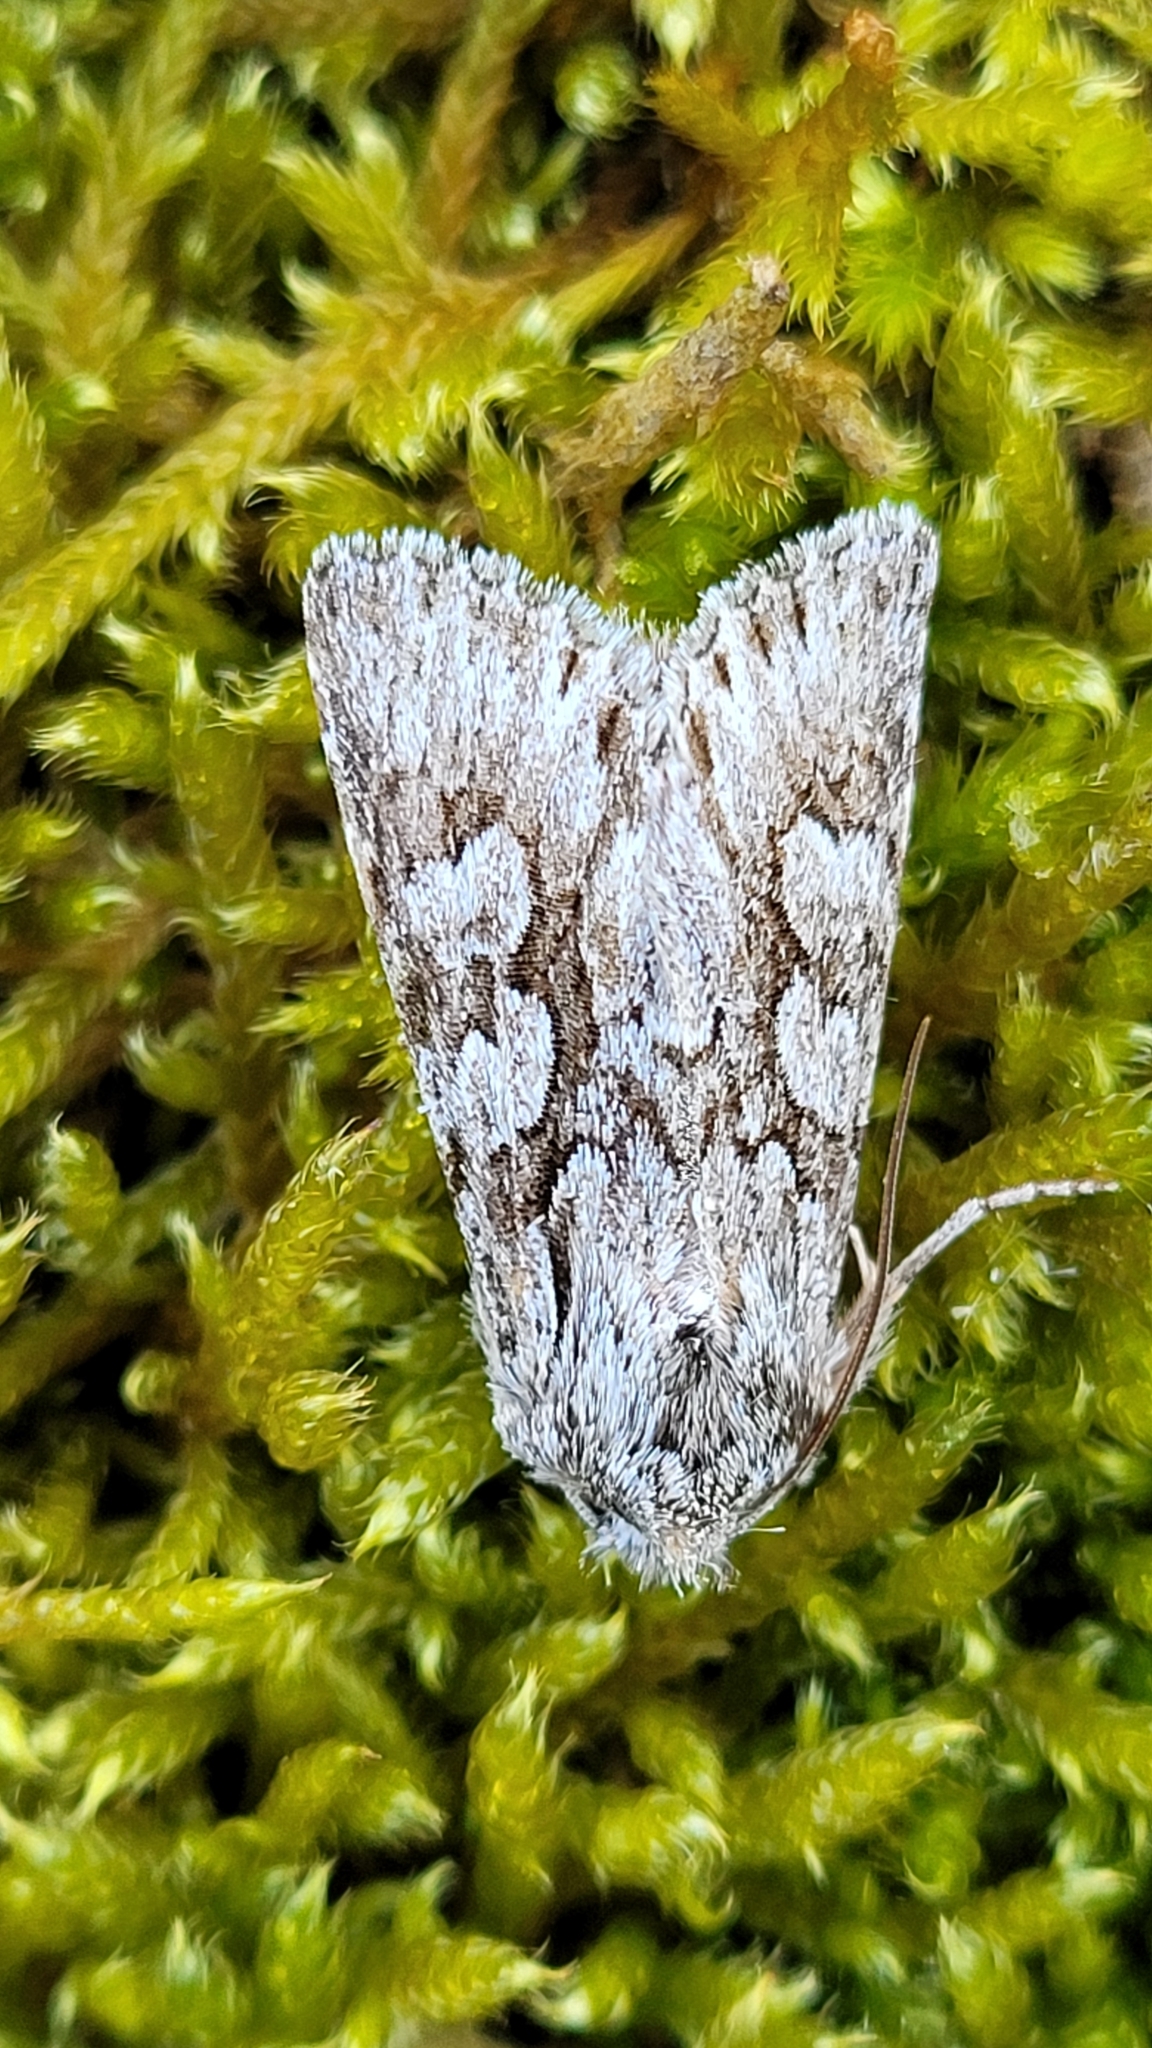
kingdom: Animalia
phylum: Arthropoda
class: Insecta
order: Lepidoptera
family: Noctuidae
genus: Xylocampa
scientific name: Xylocampa areola
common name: Early grey
